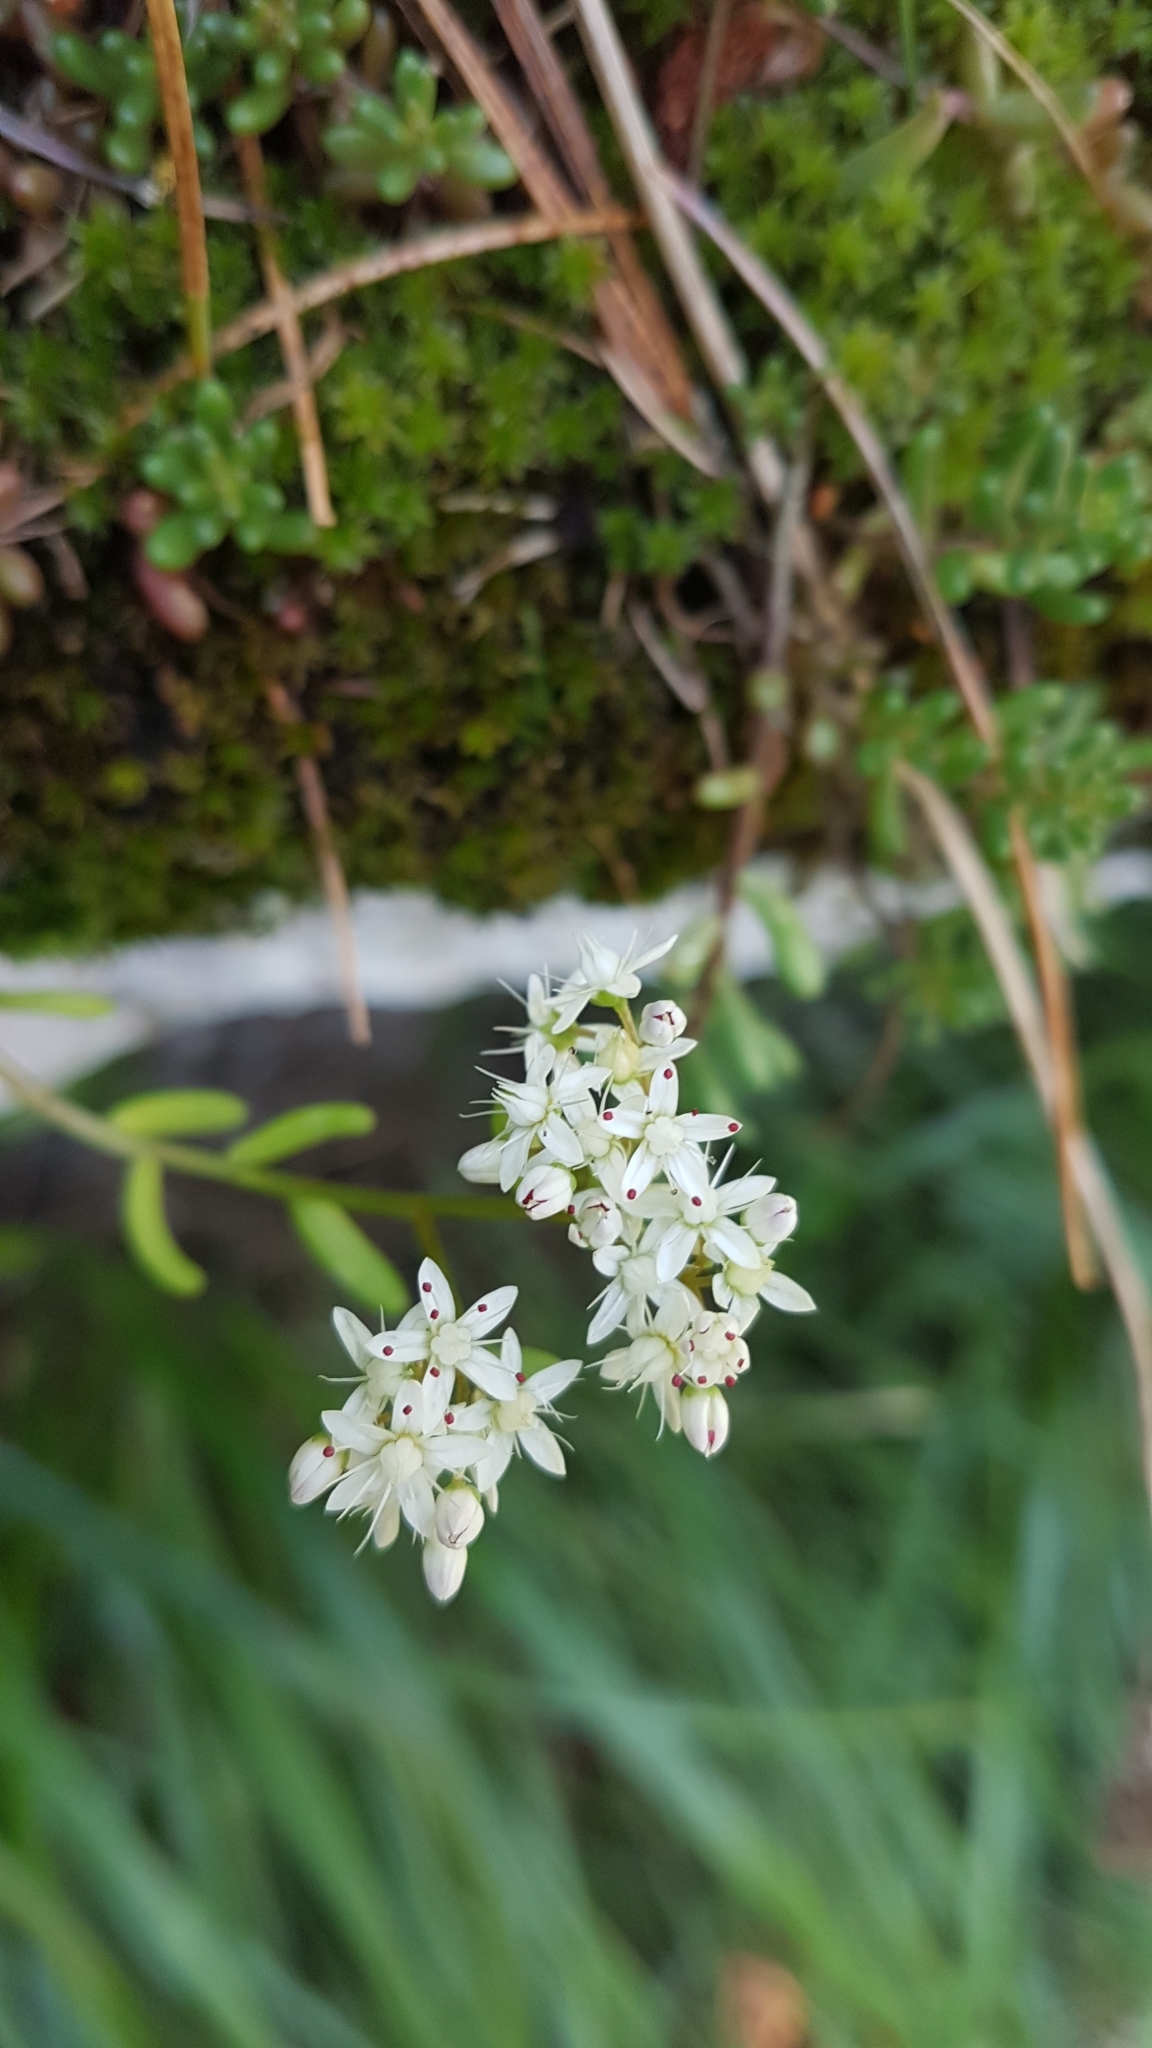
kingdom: Plantae
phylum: Tracheophyta
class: Magnoliopsida
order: Saxifragales
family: Crassulaceae
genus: Sedum
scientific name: Sedum album
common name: White stonecrop
